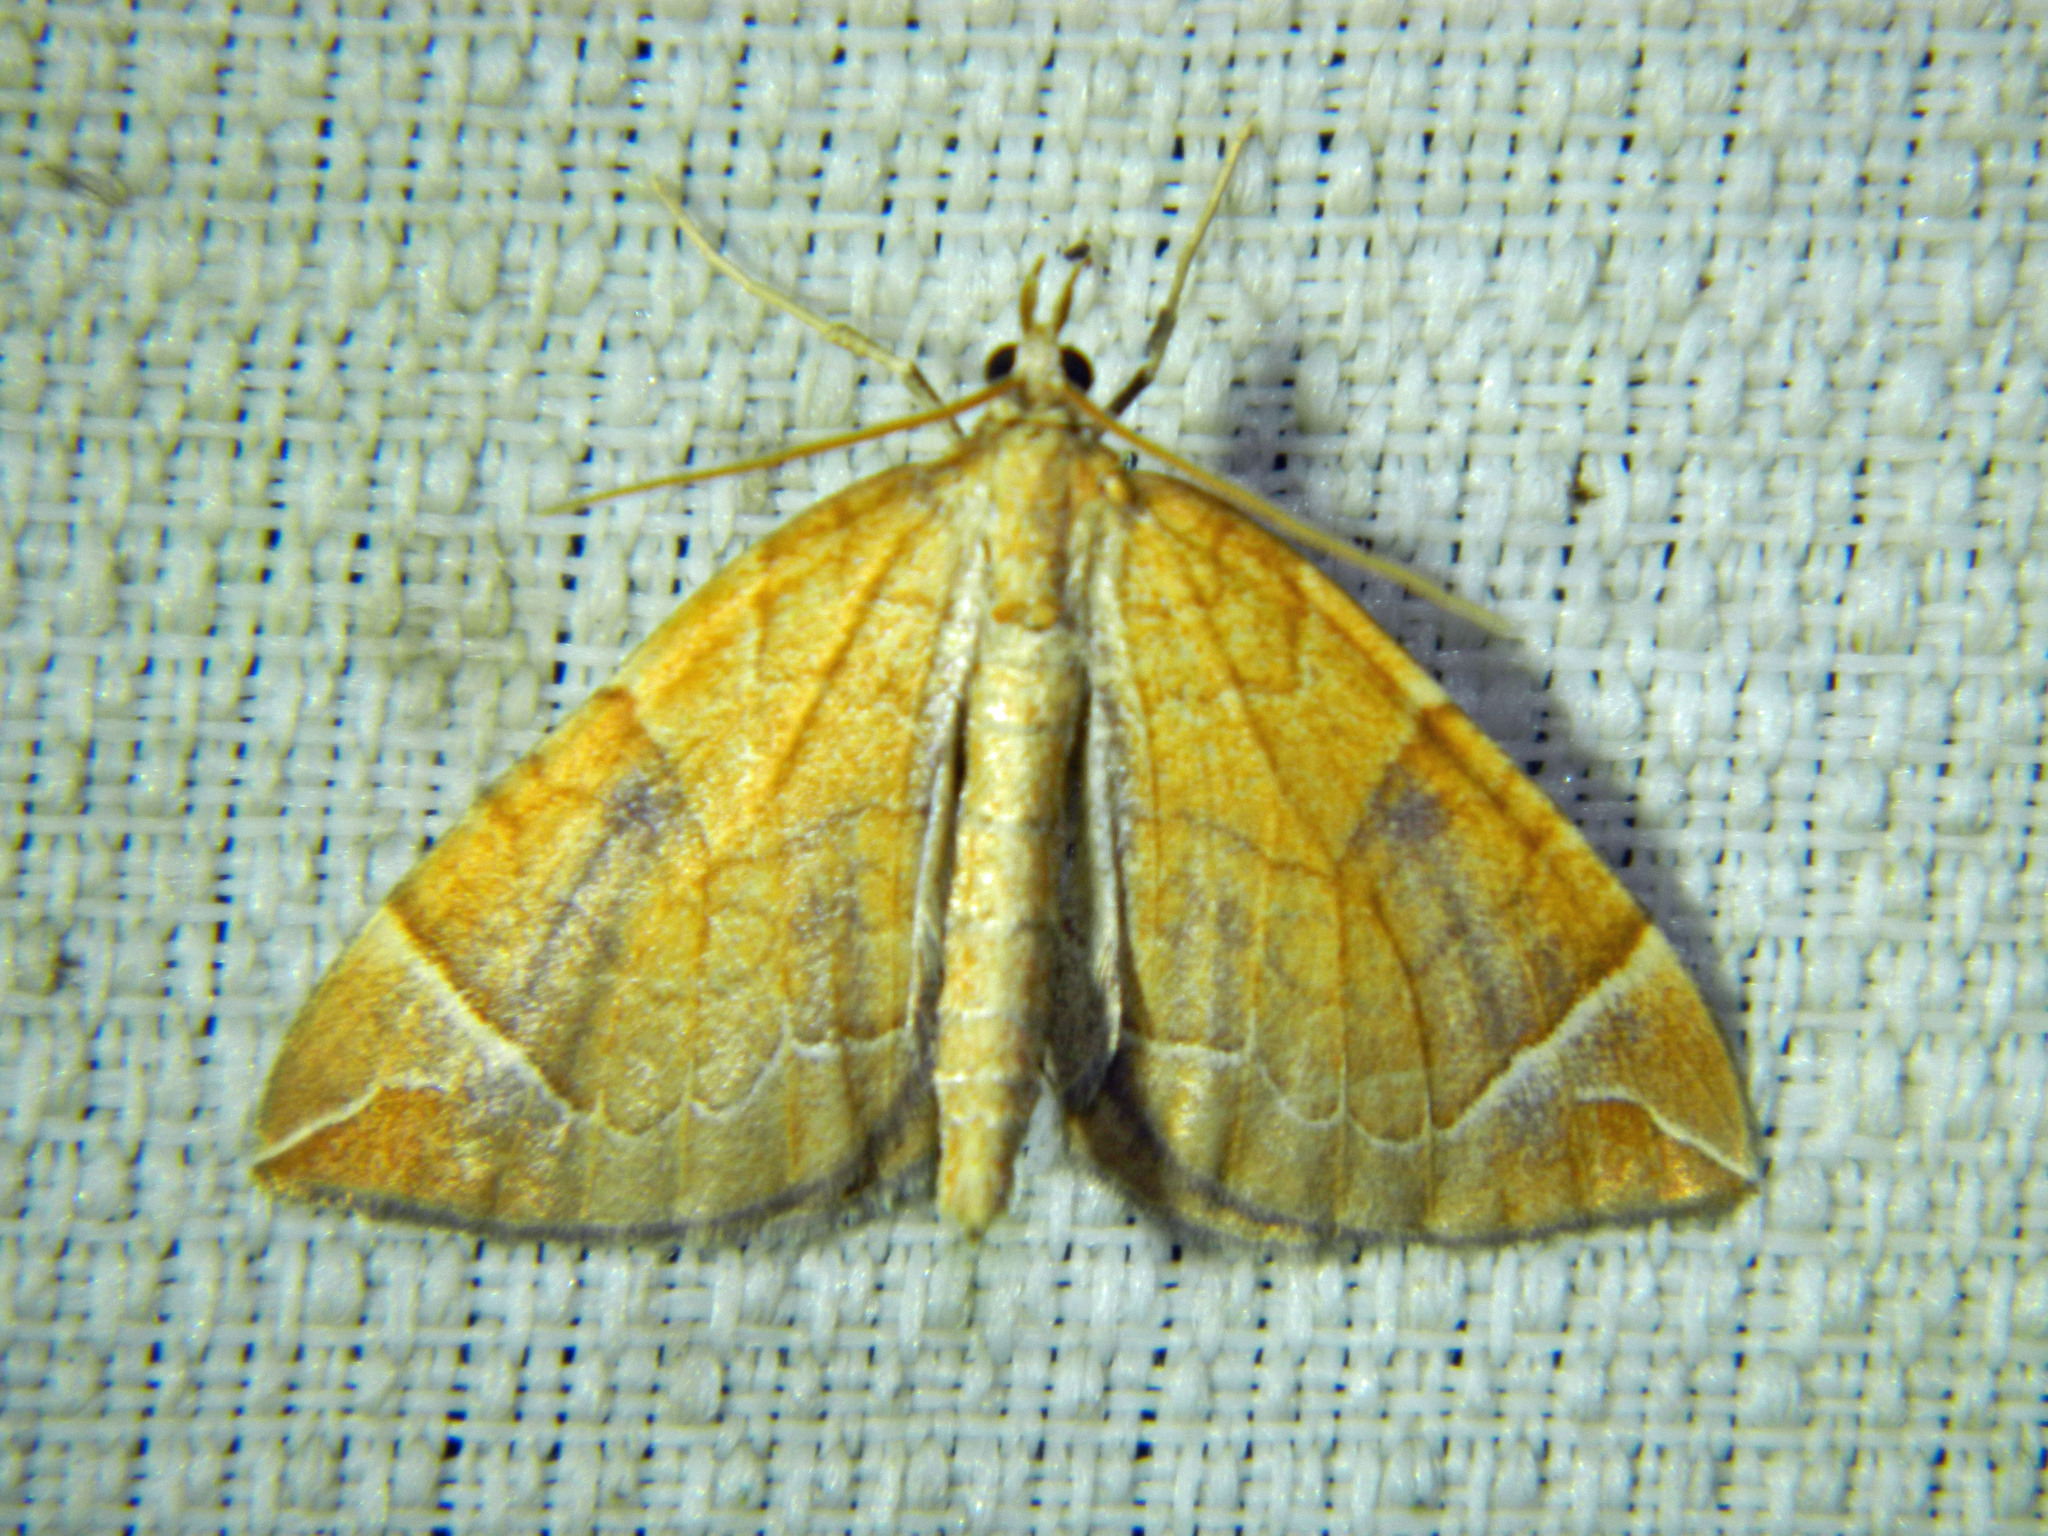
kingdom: Animalia
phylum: Arthropoda
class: Insecta
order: Lepidoptera
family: Geometridae
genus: Eulithis
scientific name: Eulithis testata
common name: Chevron
